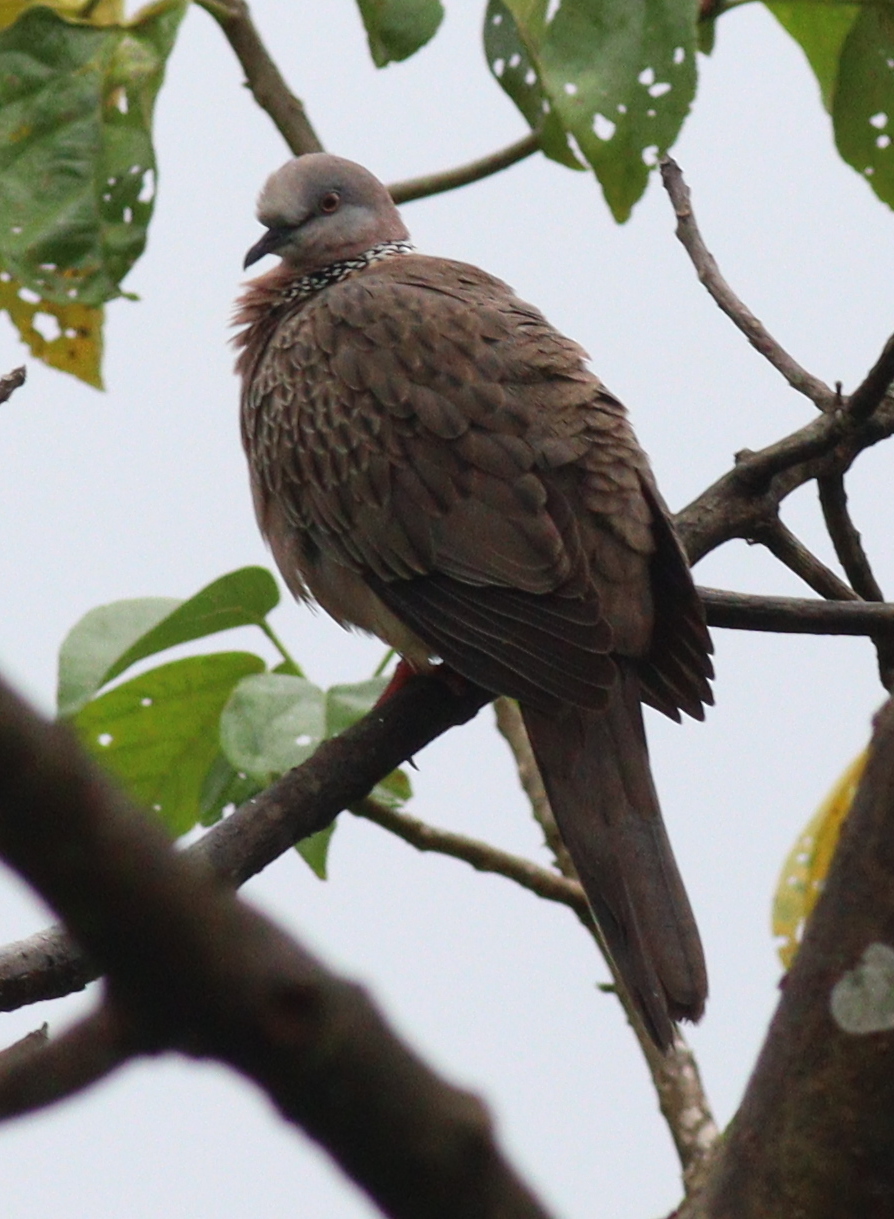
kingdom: Animalia
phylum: Chordata
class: Aves
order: Columbiformes
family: Columbidae
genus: Spilopelia
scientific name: Spilopelia chinensis
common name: Spotted dove
